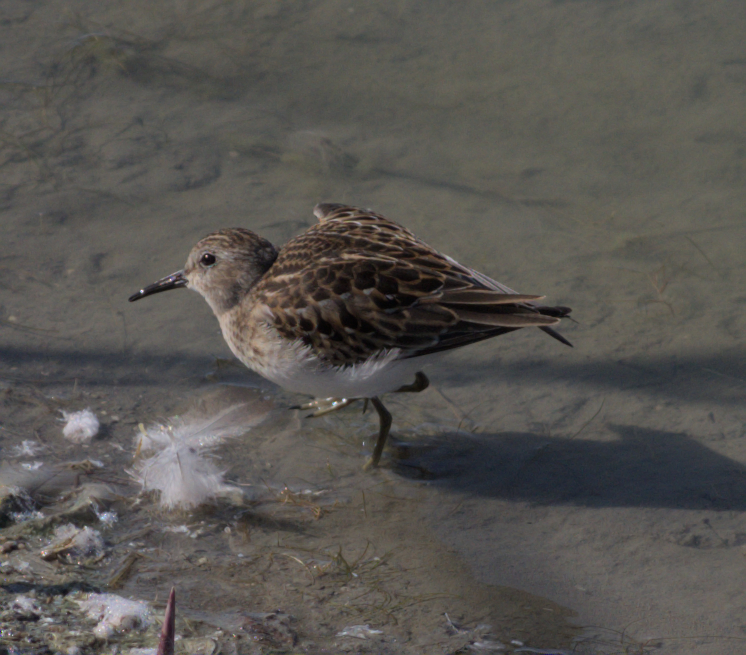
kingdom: Animalia
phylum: Chordata
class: Aves
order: Charadriiformes
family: Scolopacidae
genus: Calidris
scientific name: Calidris minutilla
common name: Least sandpiper
